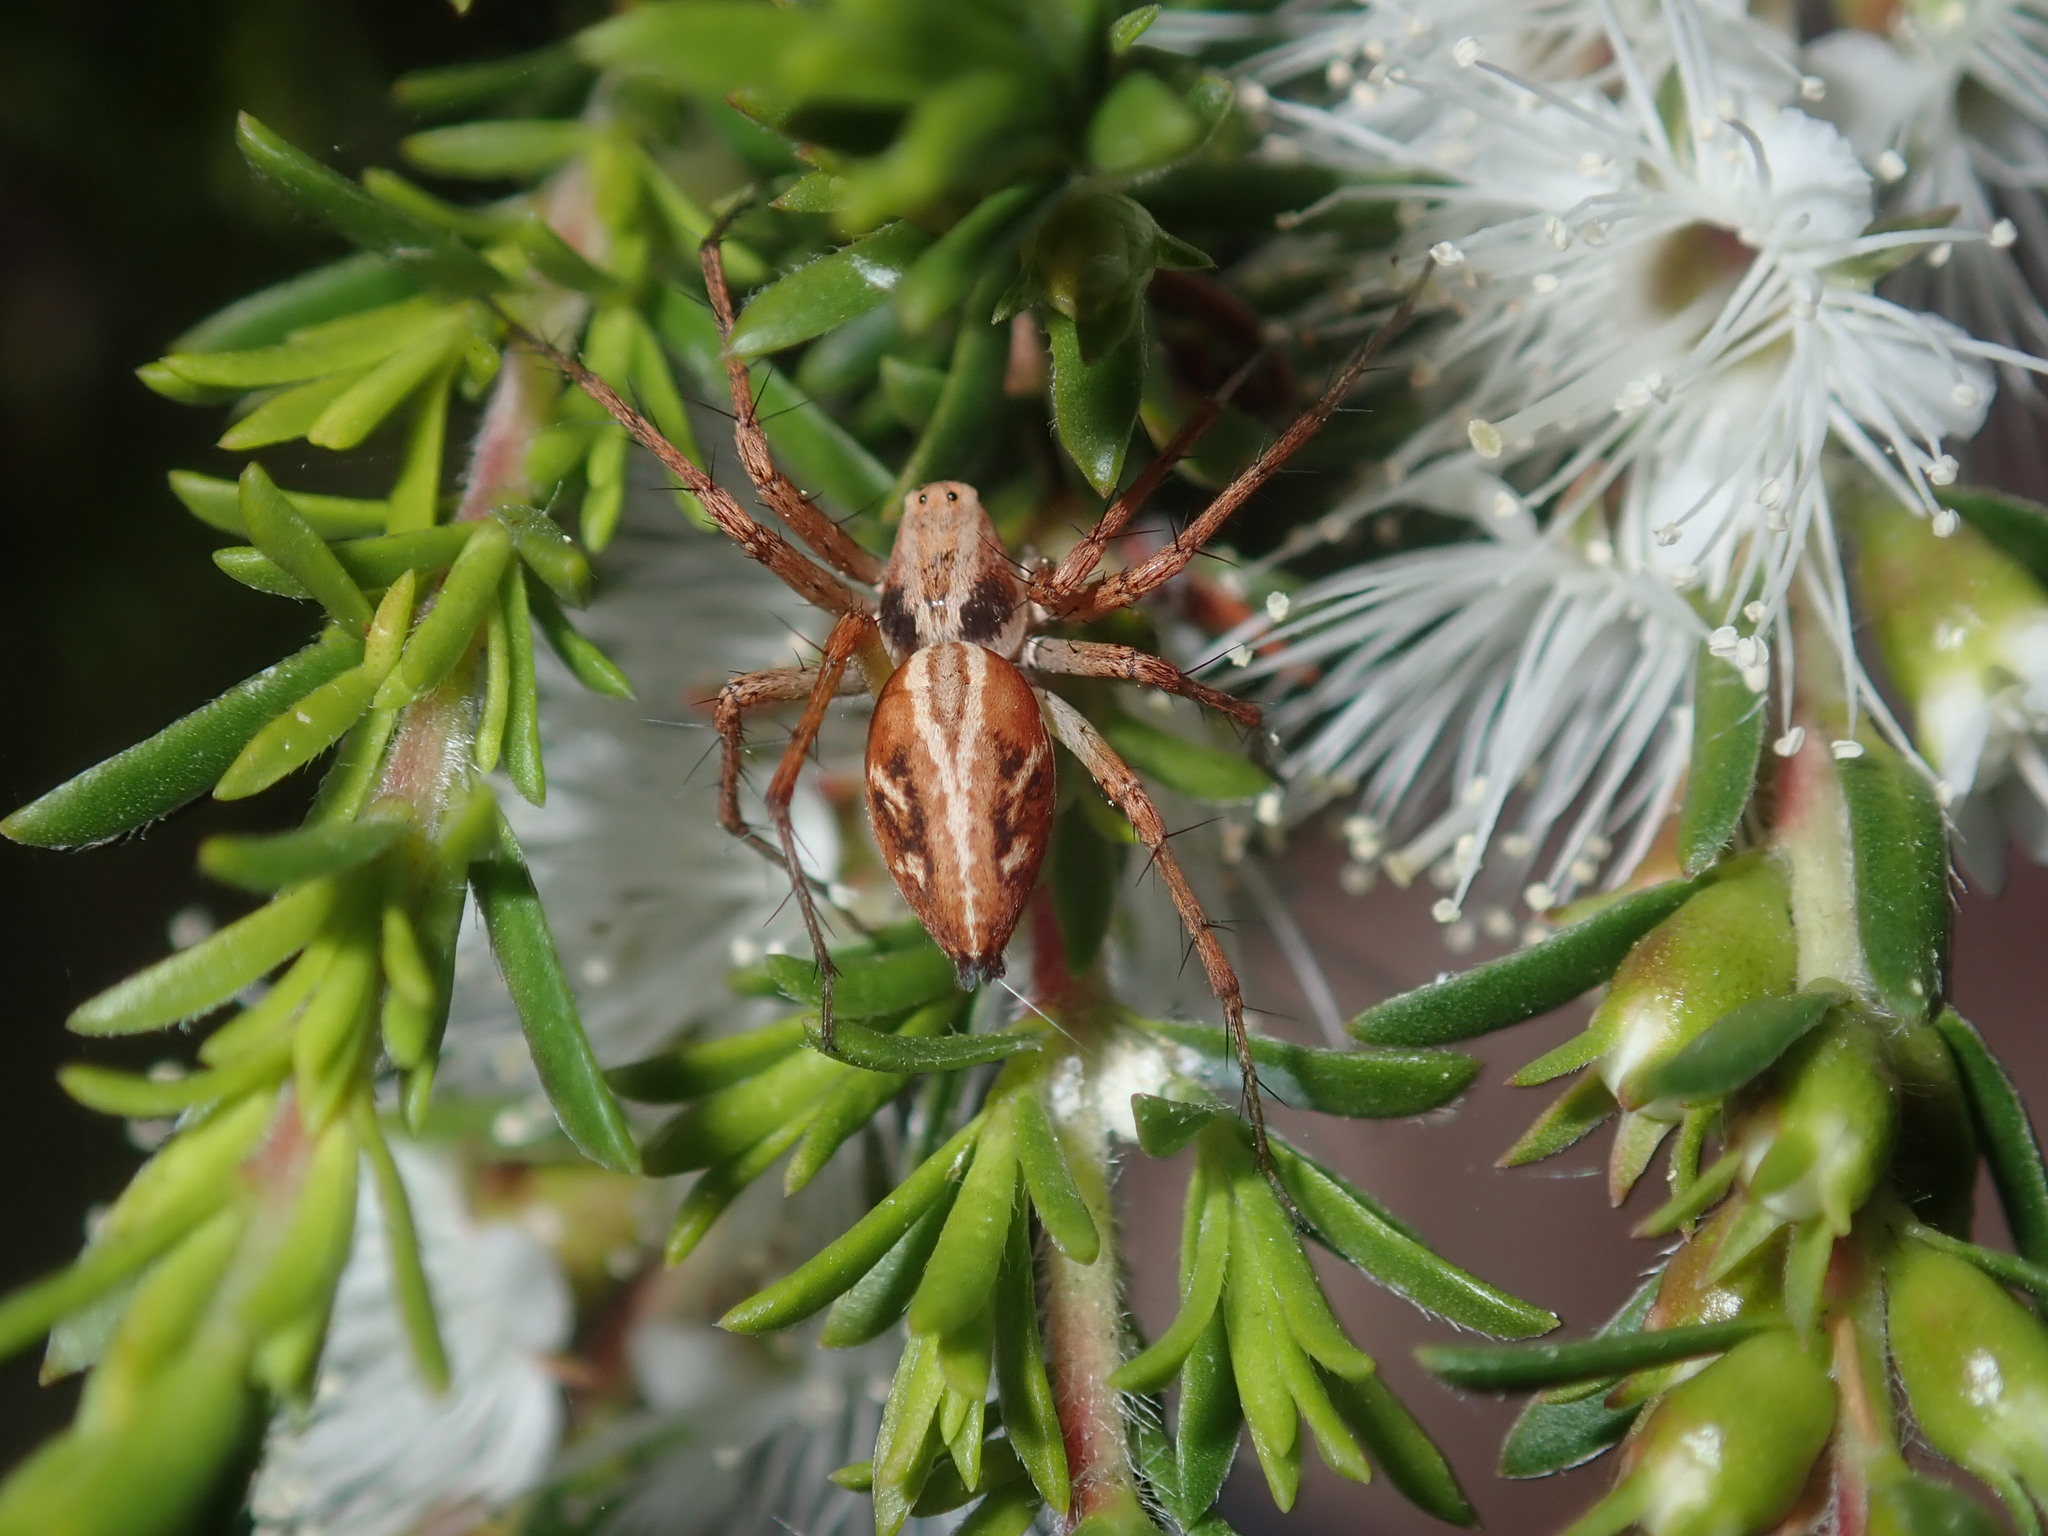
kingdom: Animalia
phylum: Arthropoda
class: Arachnida
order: Araneae
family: Oxyopidae
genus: Oxyopes
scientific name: Oxyopes amoenus
